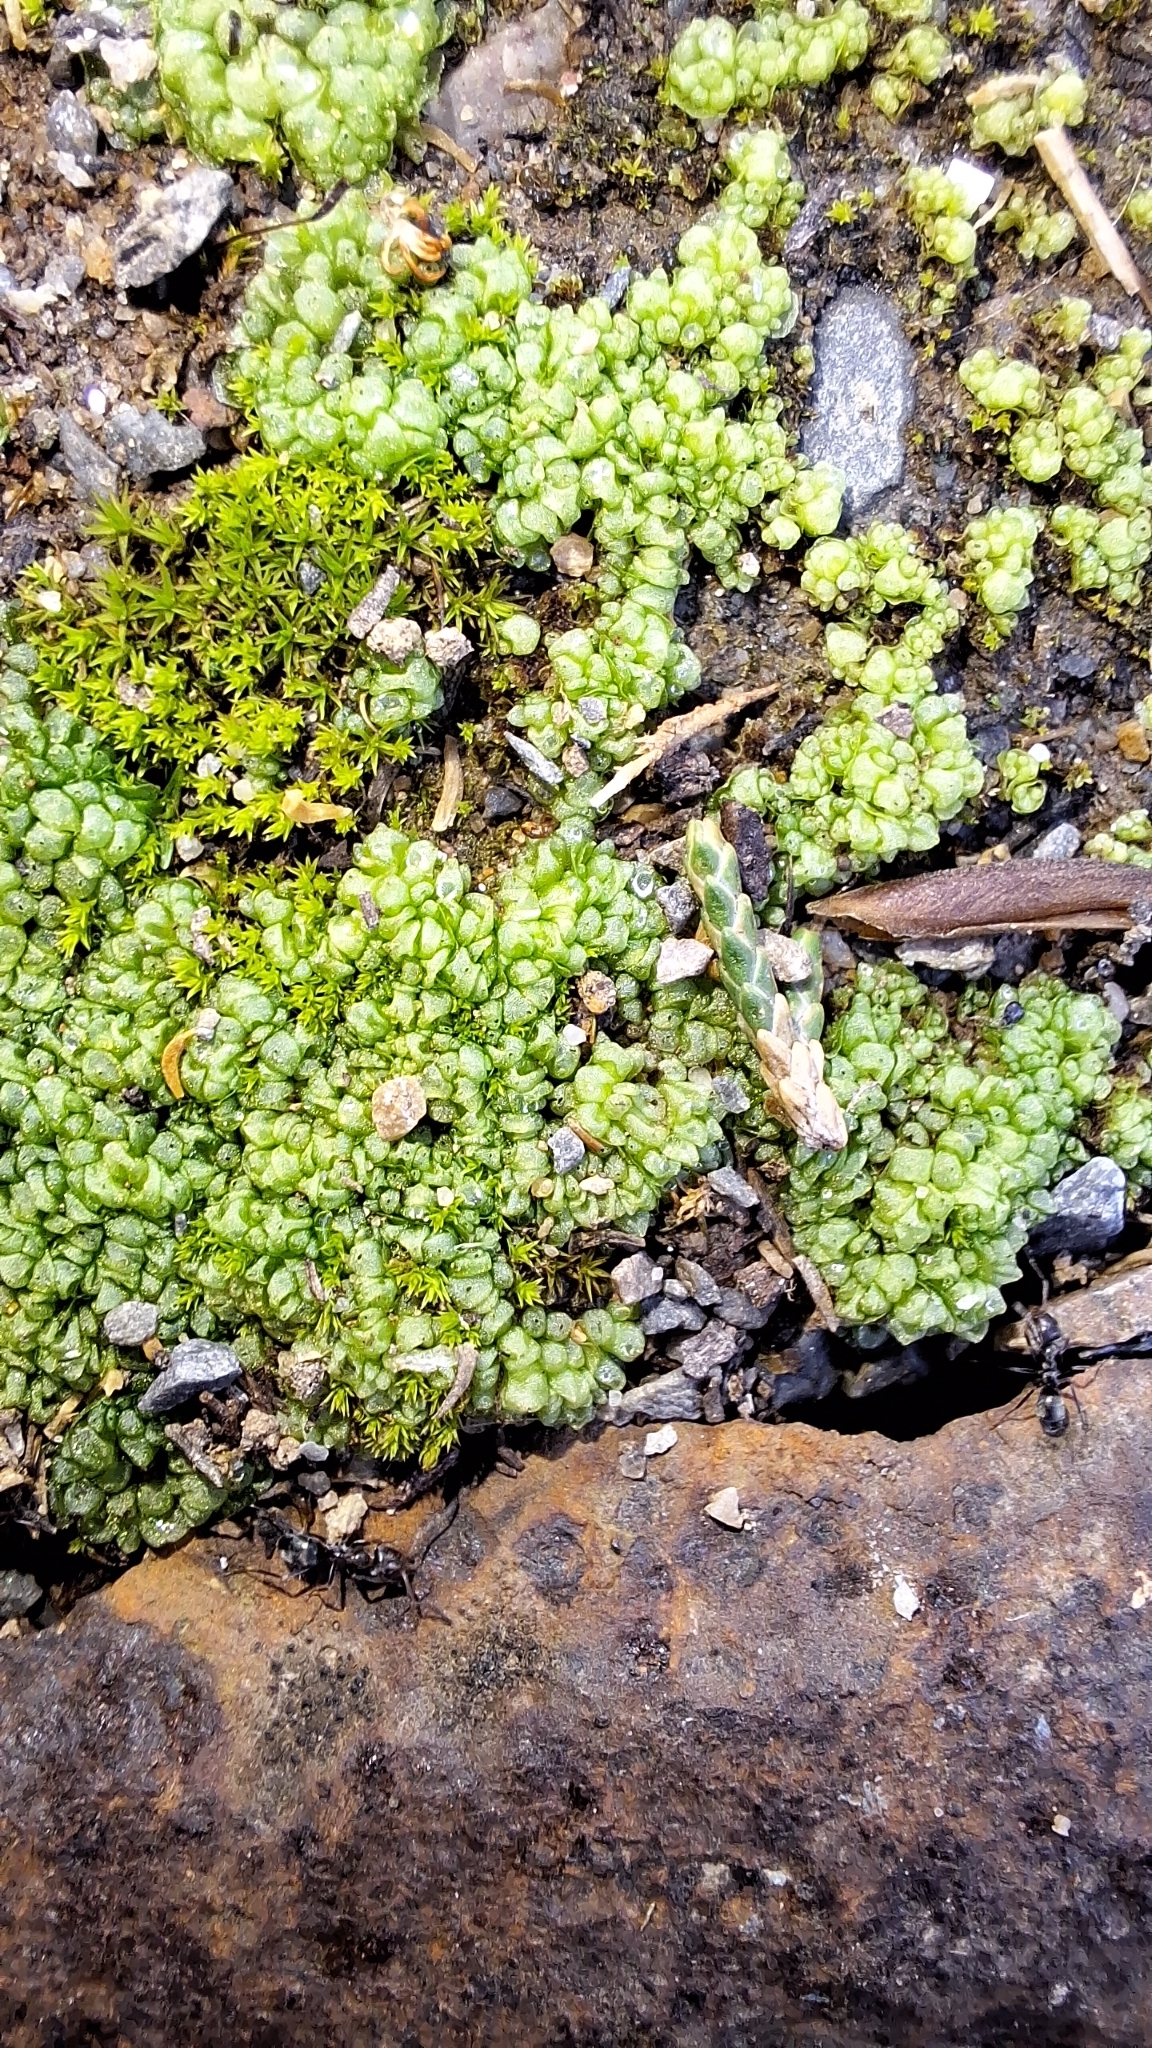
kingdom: Plantae
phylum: Marchantiophyta
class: Marchantiopsida
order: Sphaerocarpales
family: Sphaerocarpaceae
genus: Sphaerocarpos
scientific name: Sphaerocarpos texanus
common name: Texas balloonwort
